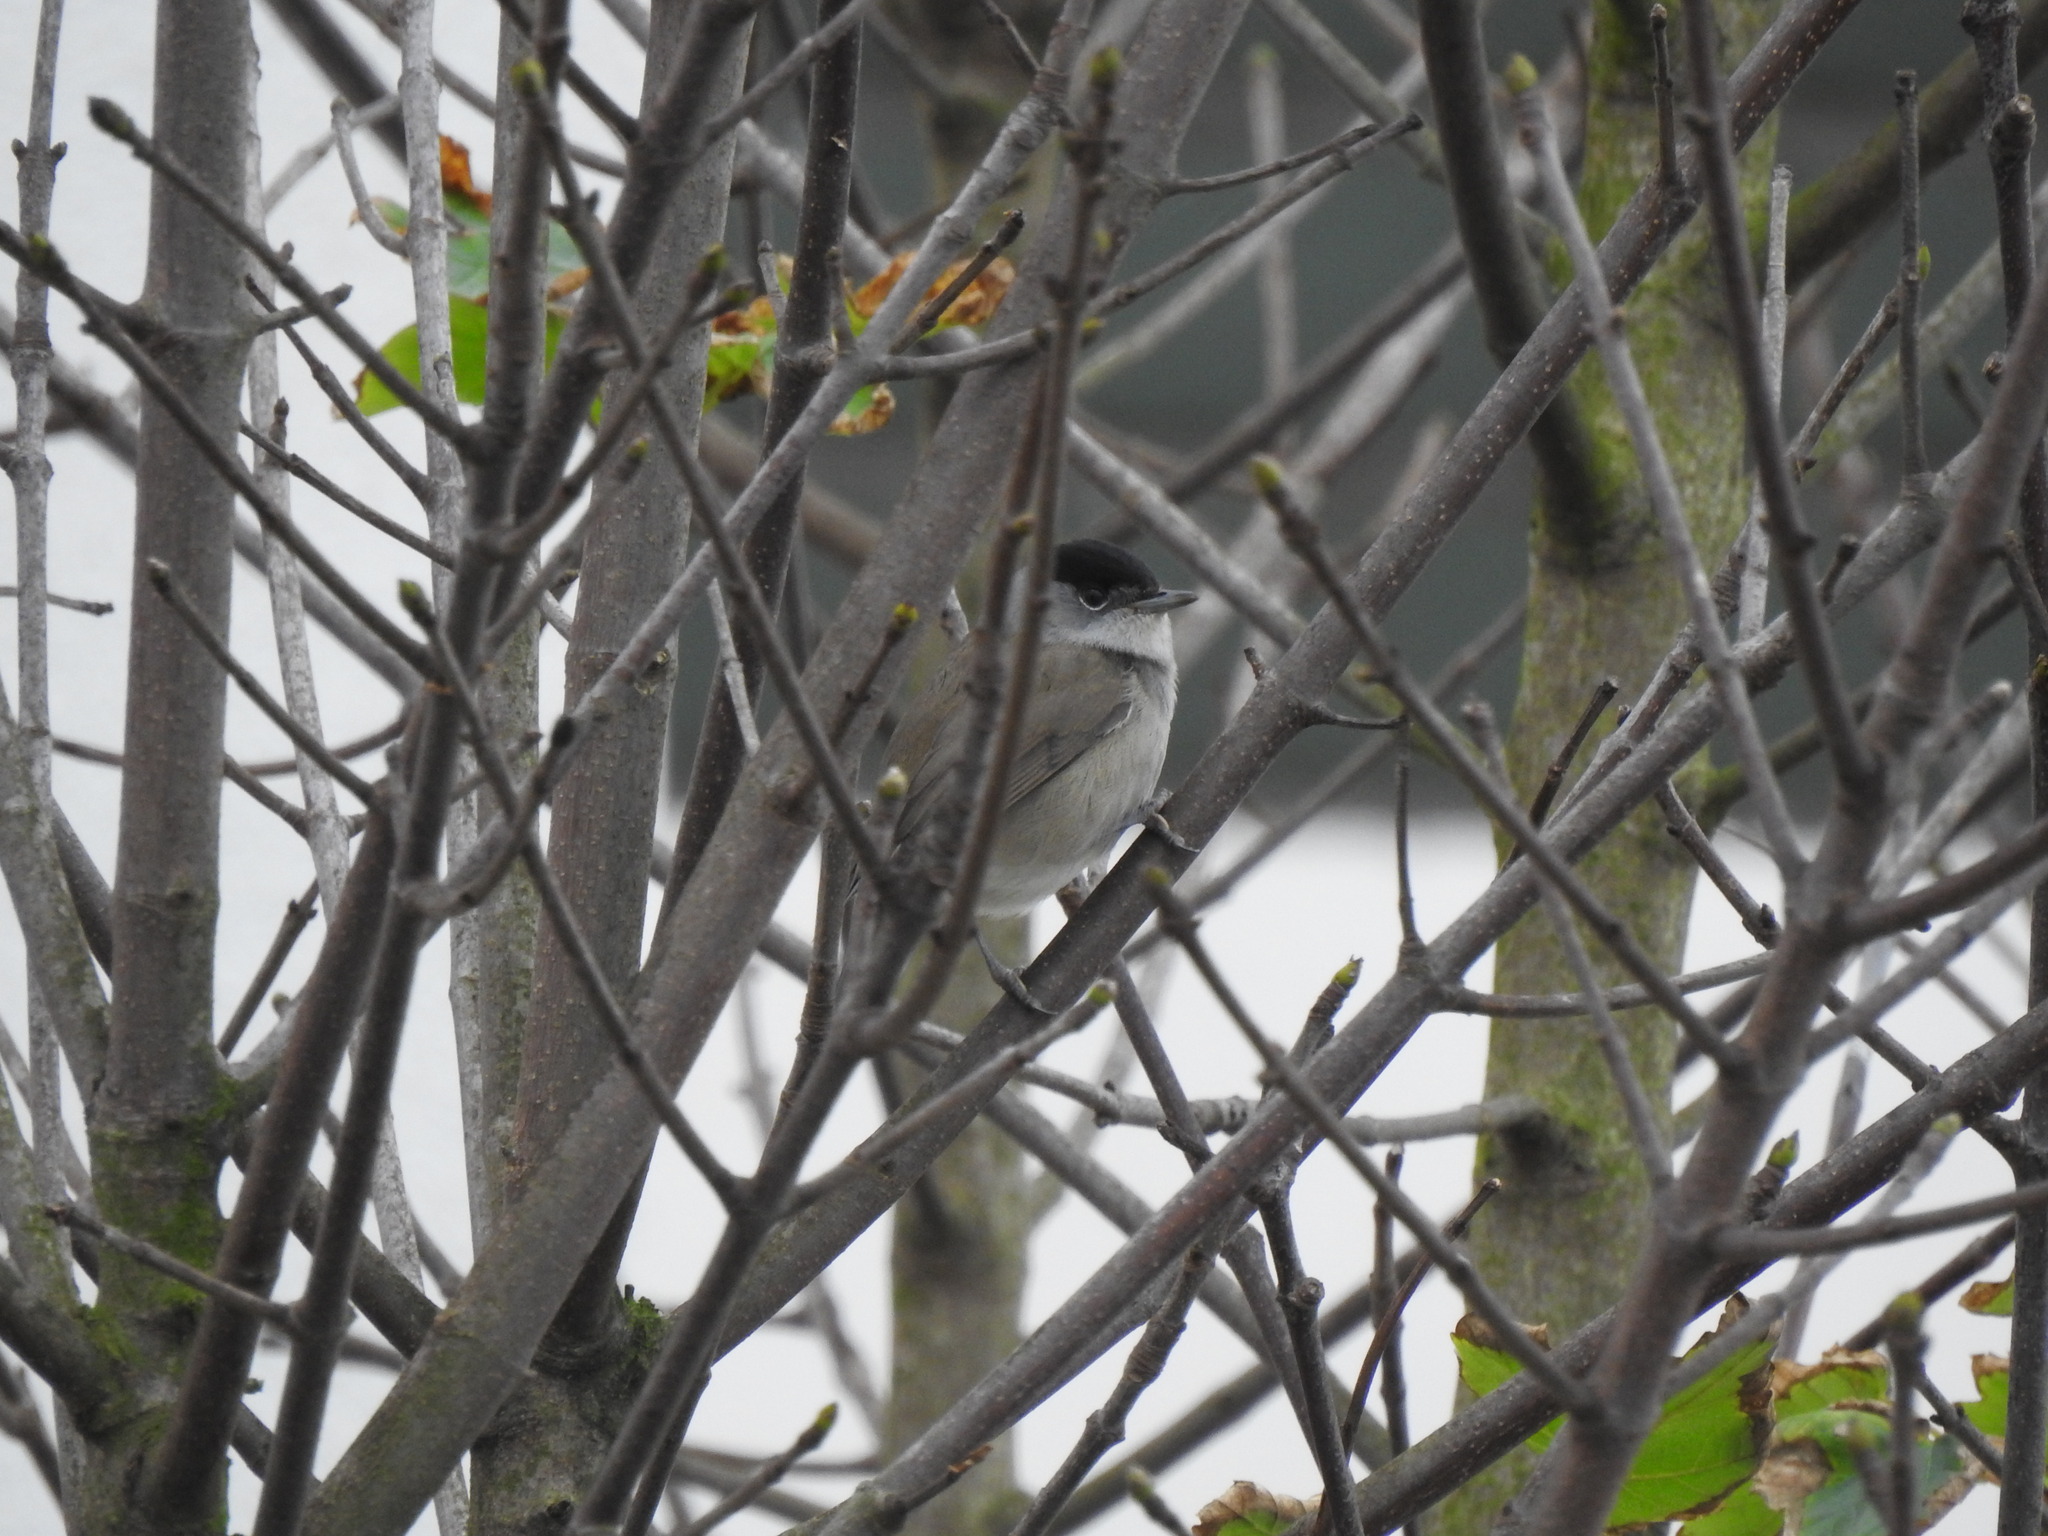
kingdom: Animalia
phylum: Chordata
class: Aves
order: Passeriformes
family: Sylviidae
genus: Sylvia
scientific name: Sylvia atricapilla
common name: Eurasian blackcap
